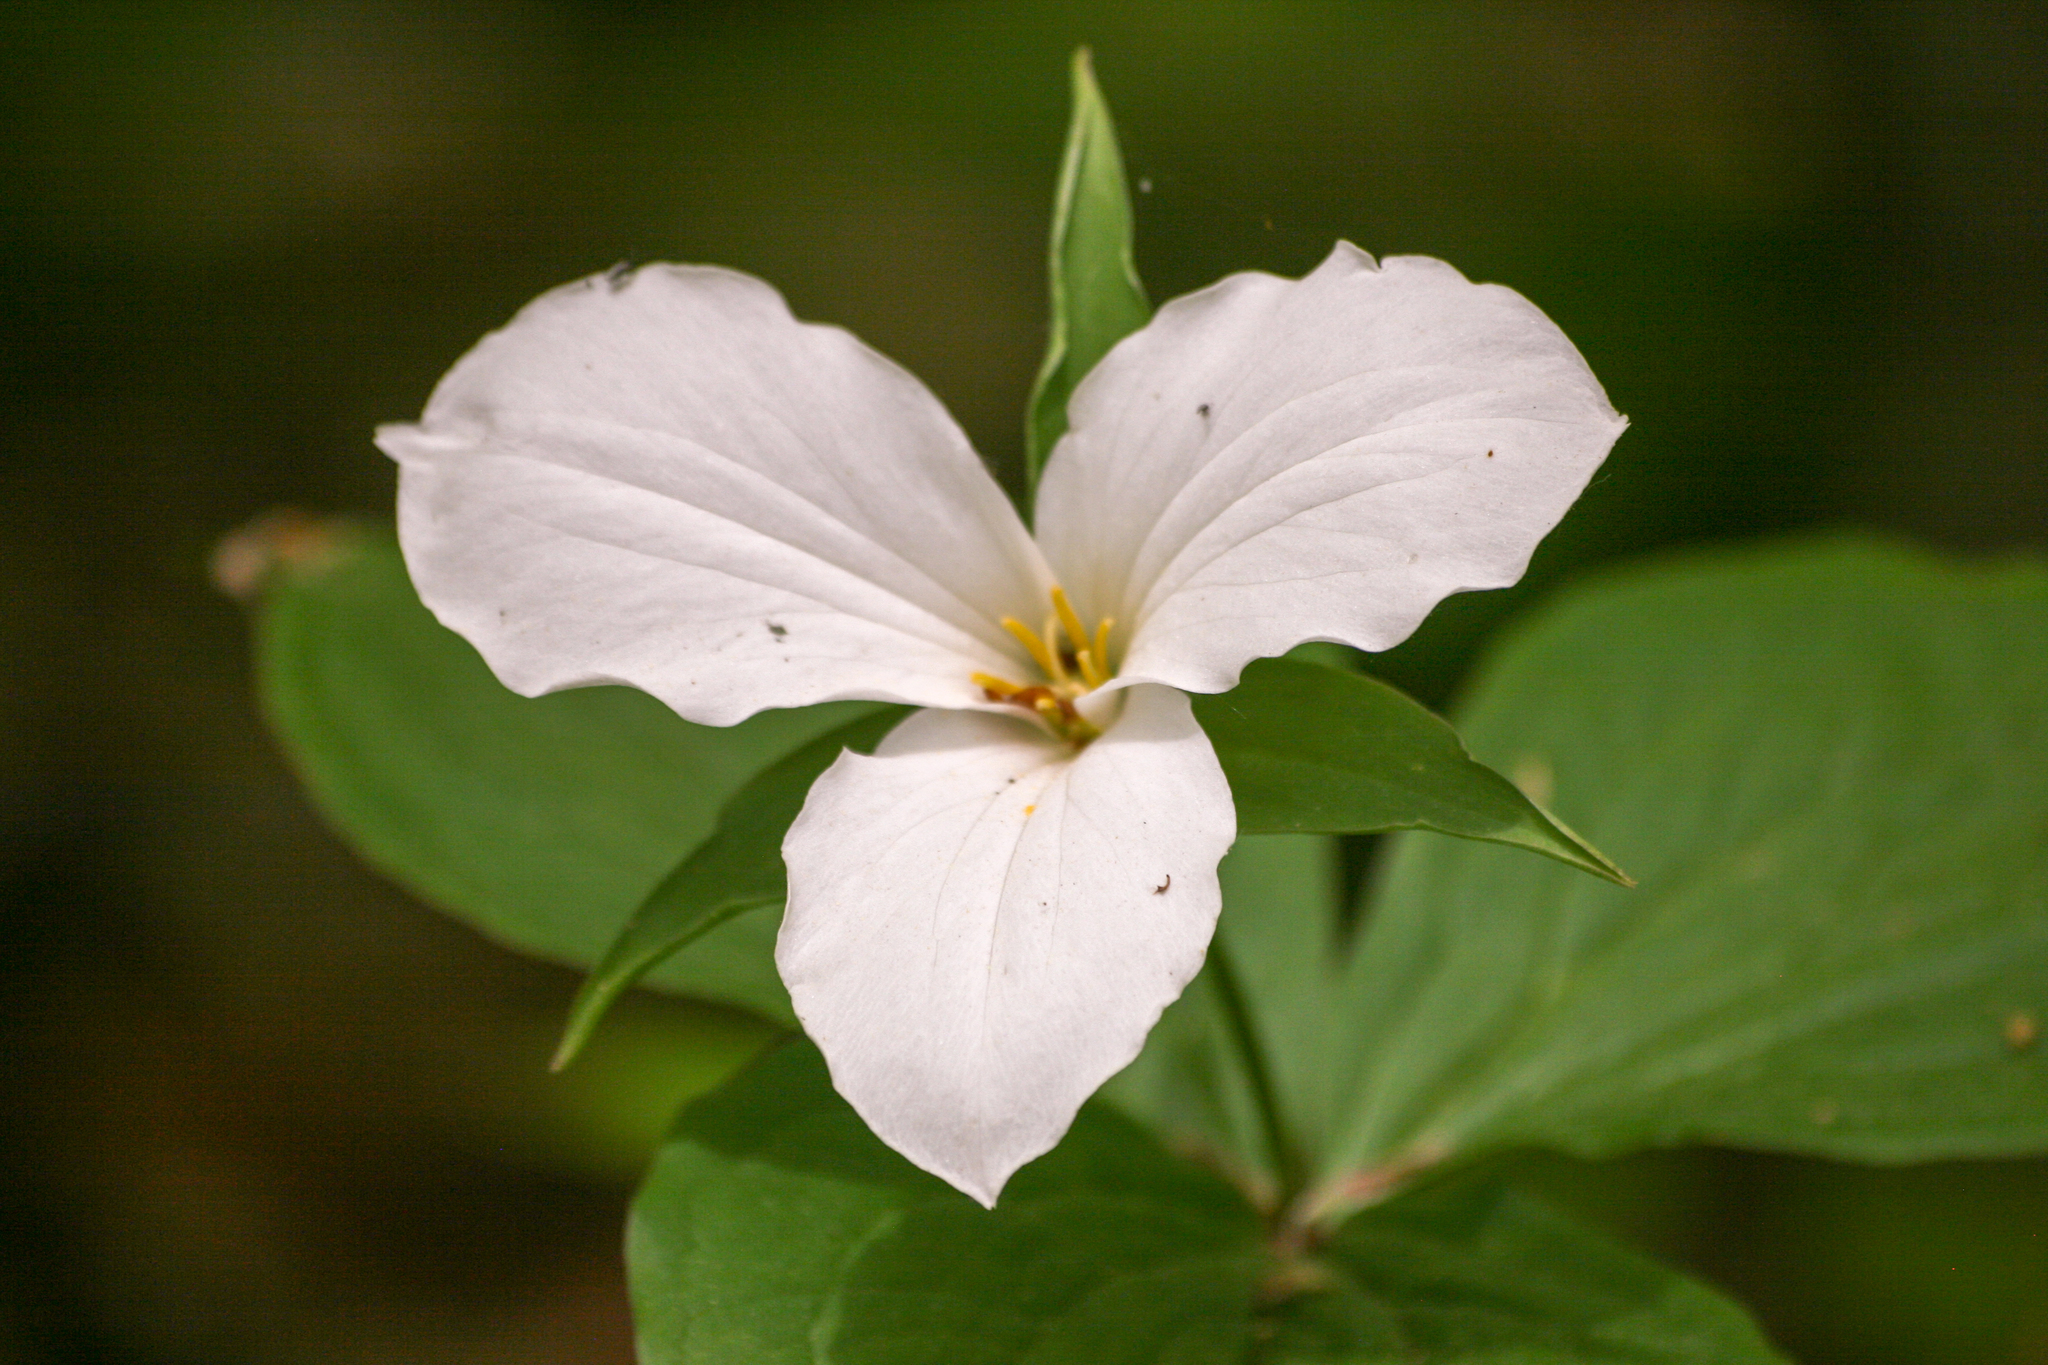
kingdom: Plantae
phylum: Tracheophyta
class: Liliopsida
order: Liliales
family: Melanthiaceae
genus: Trillium
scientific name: Trillium grandiflorum
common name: Great white trillium
